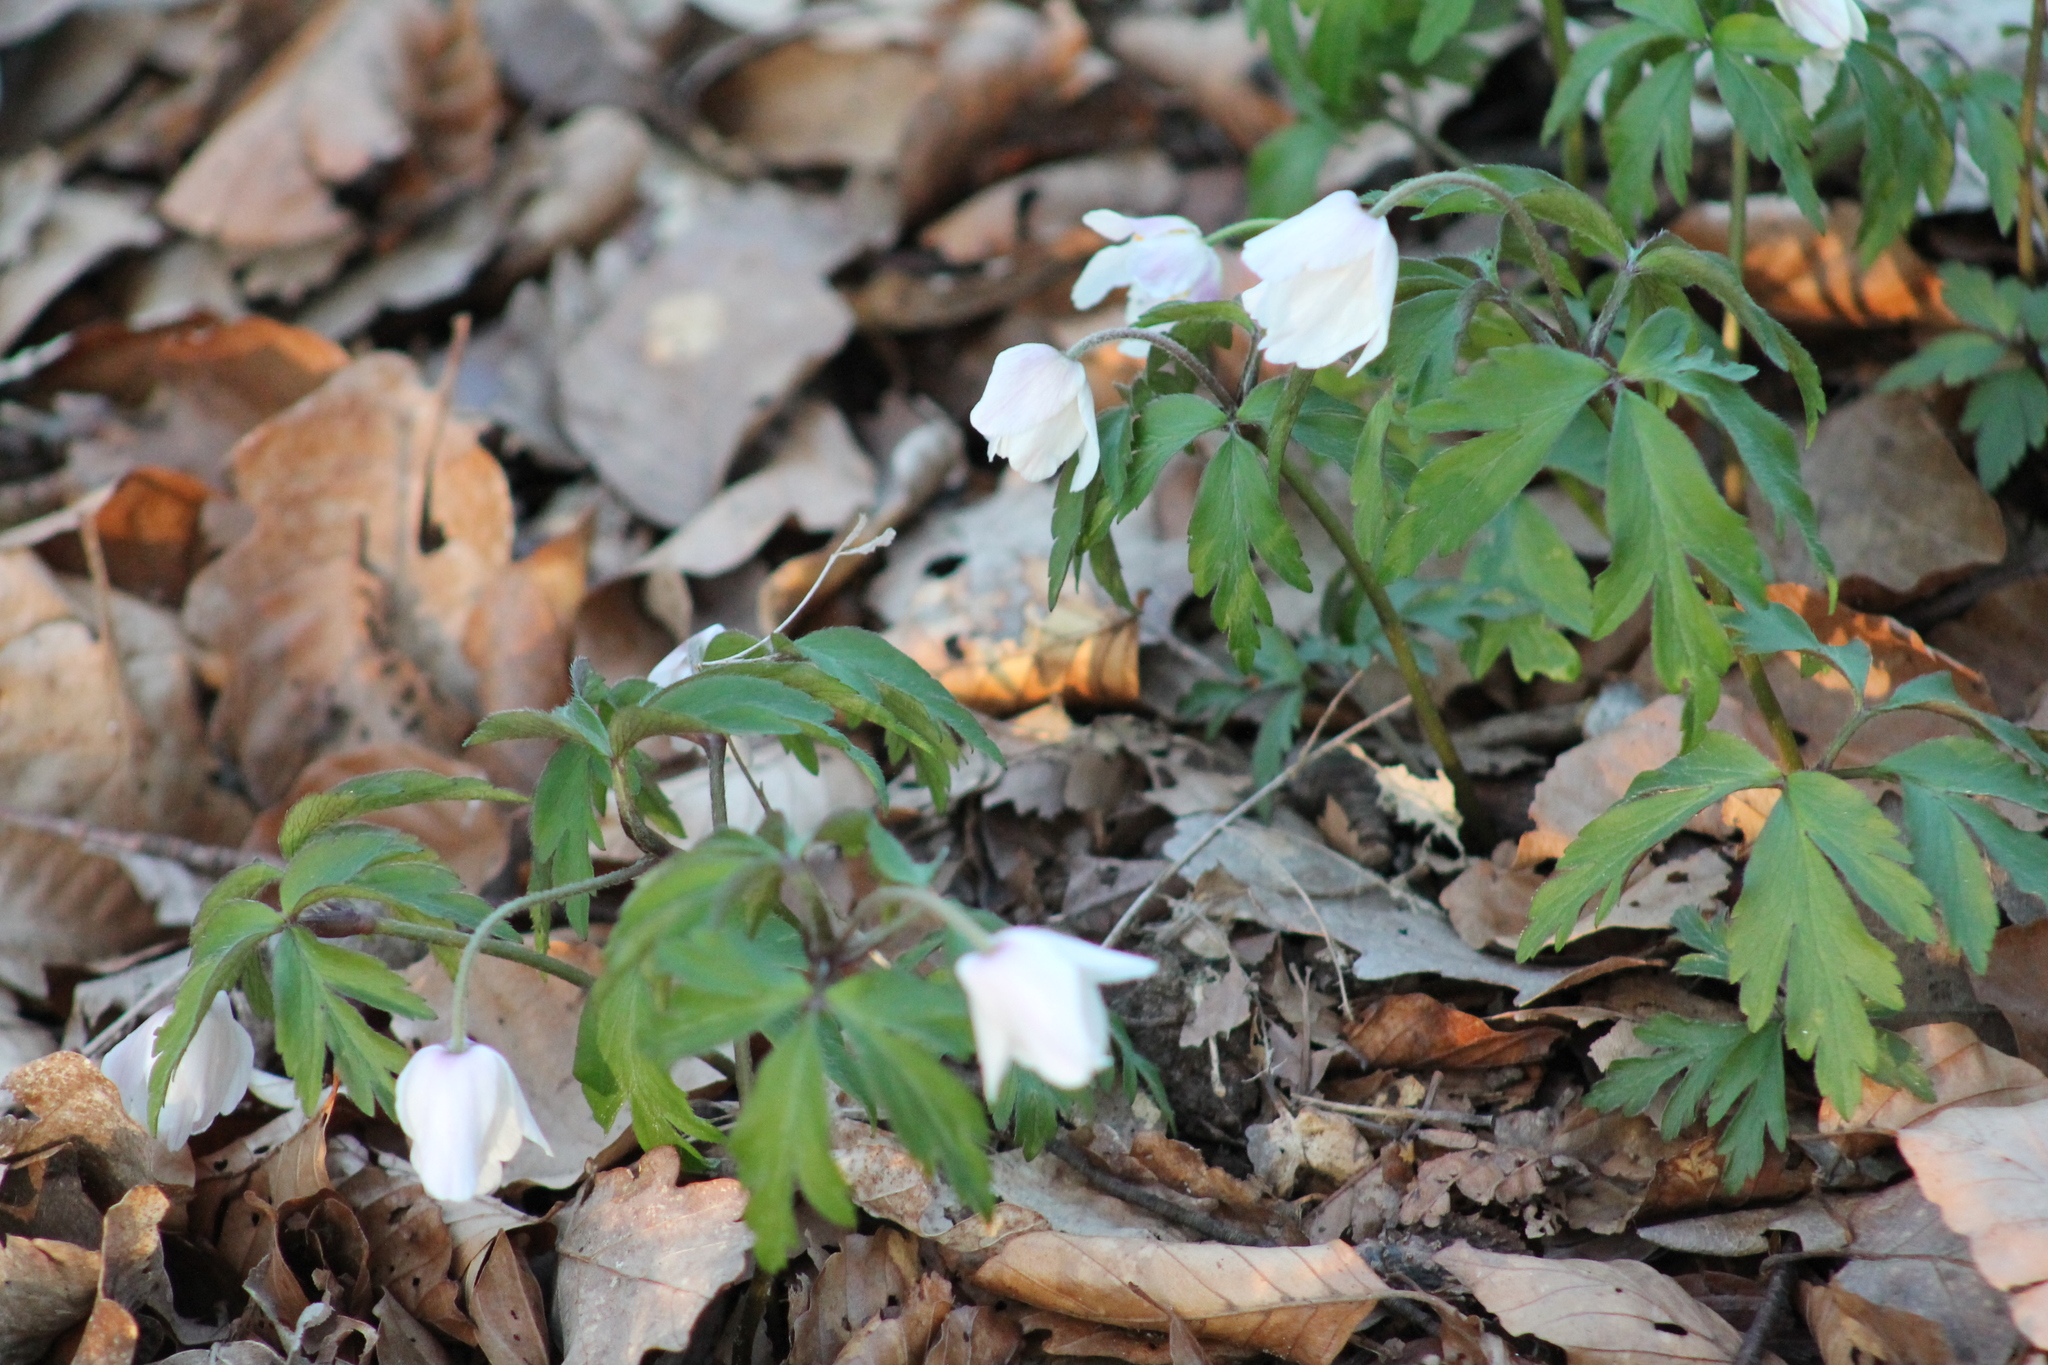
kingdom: Plantae
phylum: Tracheophyta
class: Magnoliopsida
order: Ranunculales
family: Ranunculaceae
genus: Anemone
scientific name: Anemone nemorosa
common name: Wood anemone
